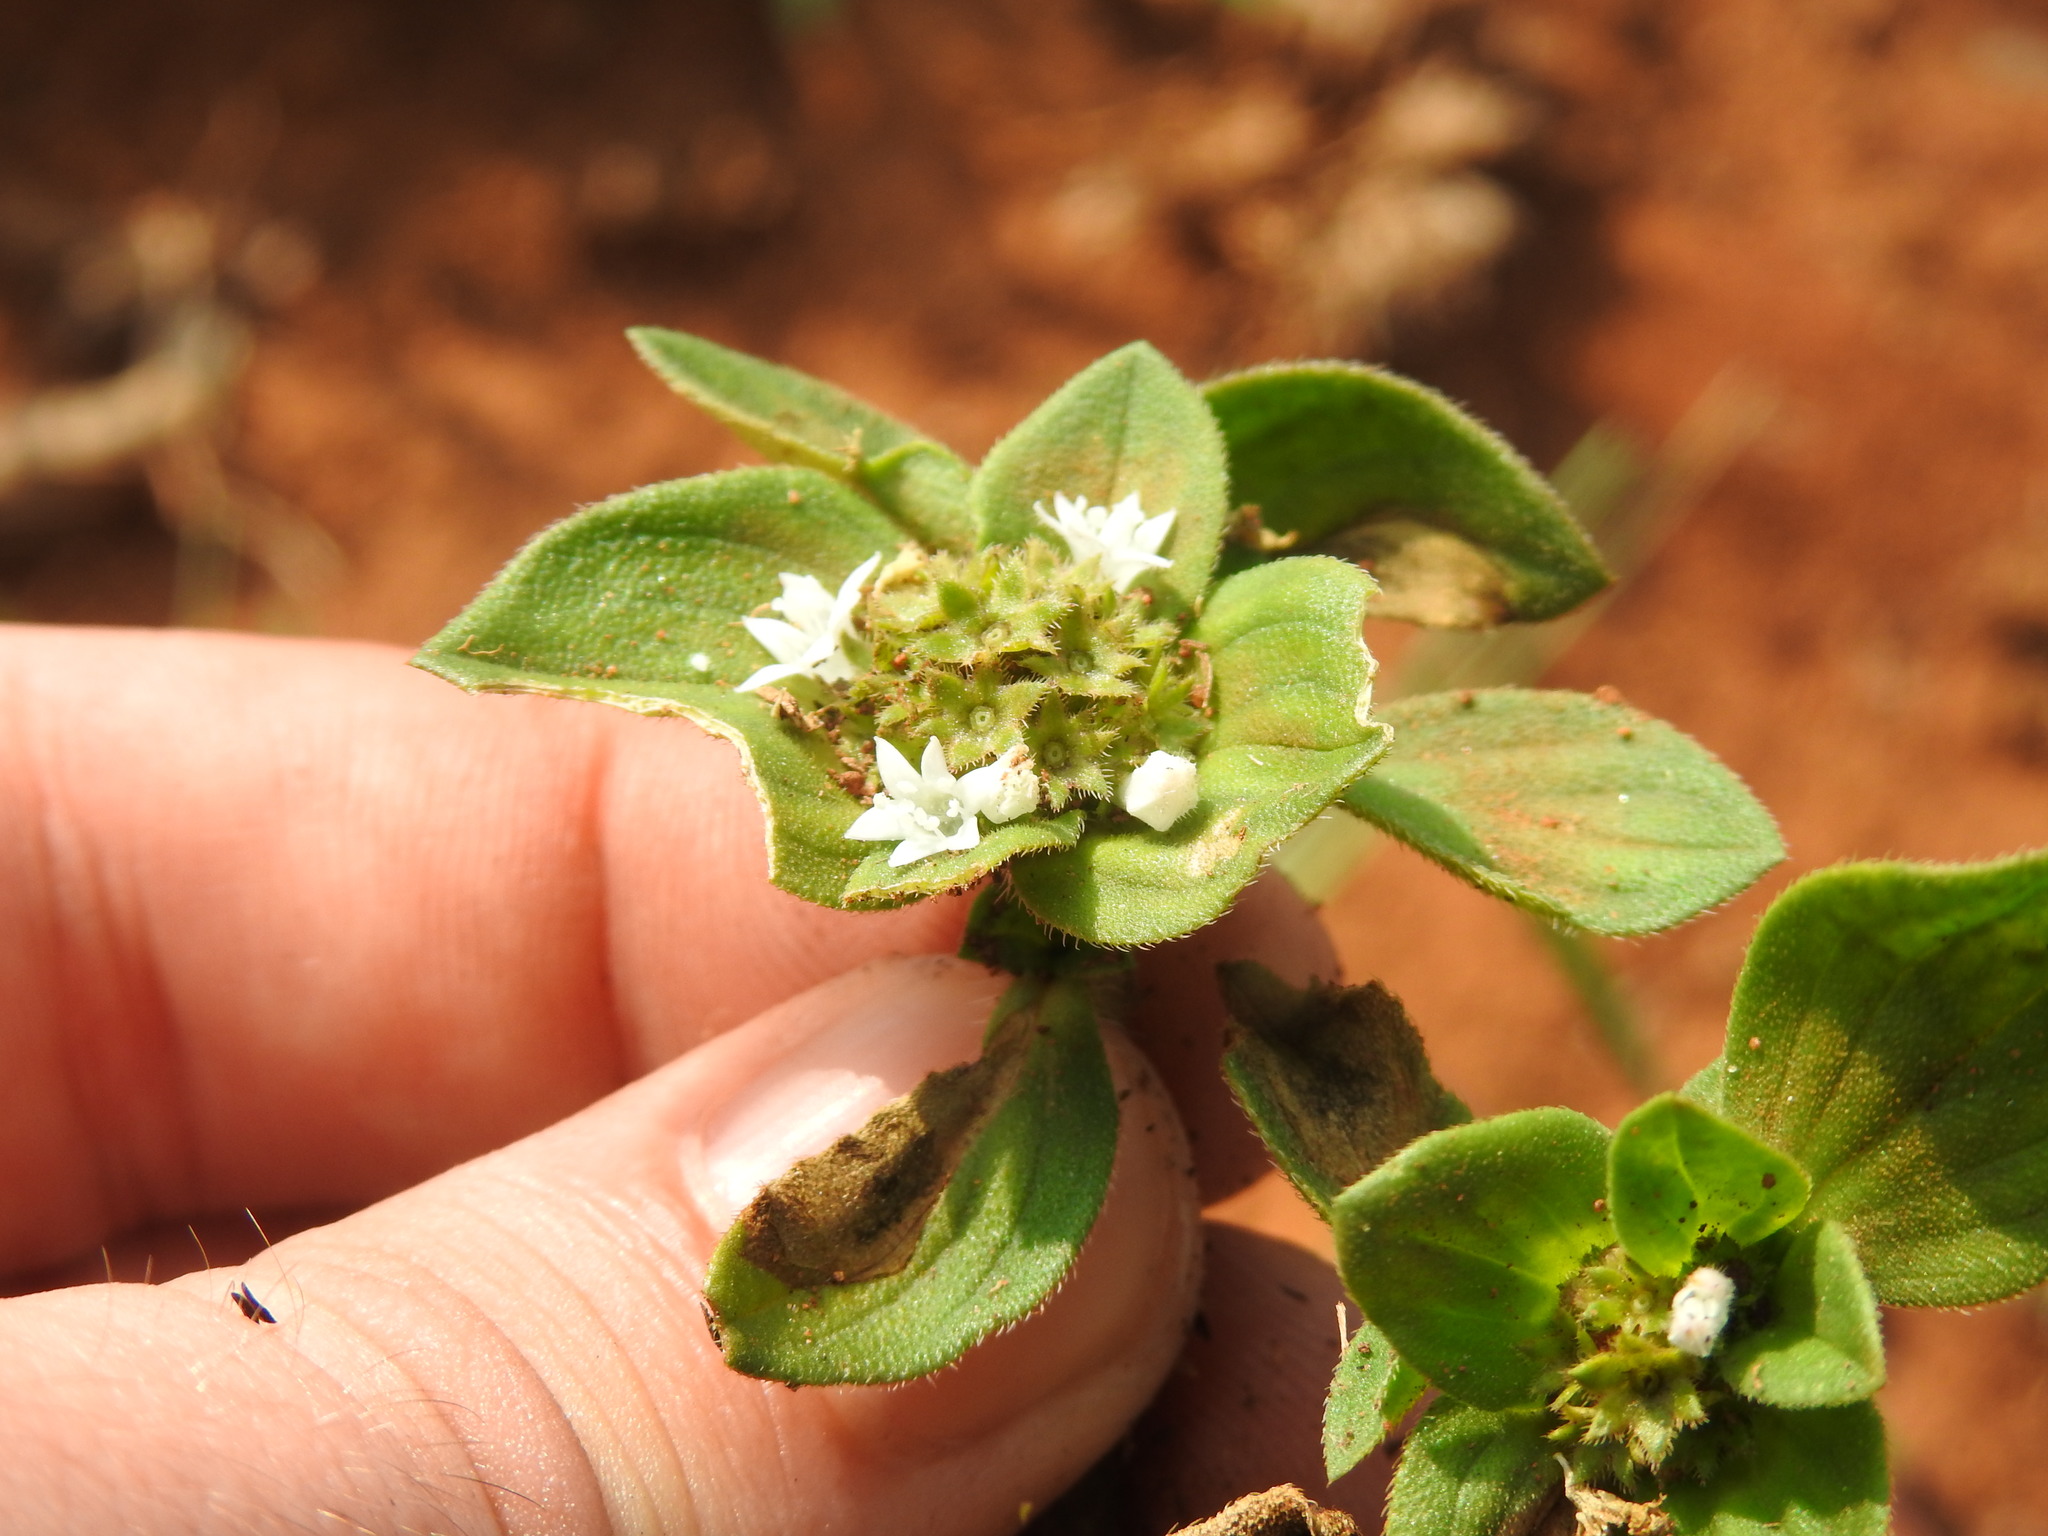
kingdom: Plantae
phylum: Tracheophyta
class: Magnoliopsida
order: Gentianales
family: Rubiaceae
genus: Richardia
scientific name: Richardia brasiliensis
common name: Tropical mexican clover
